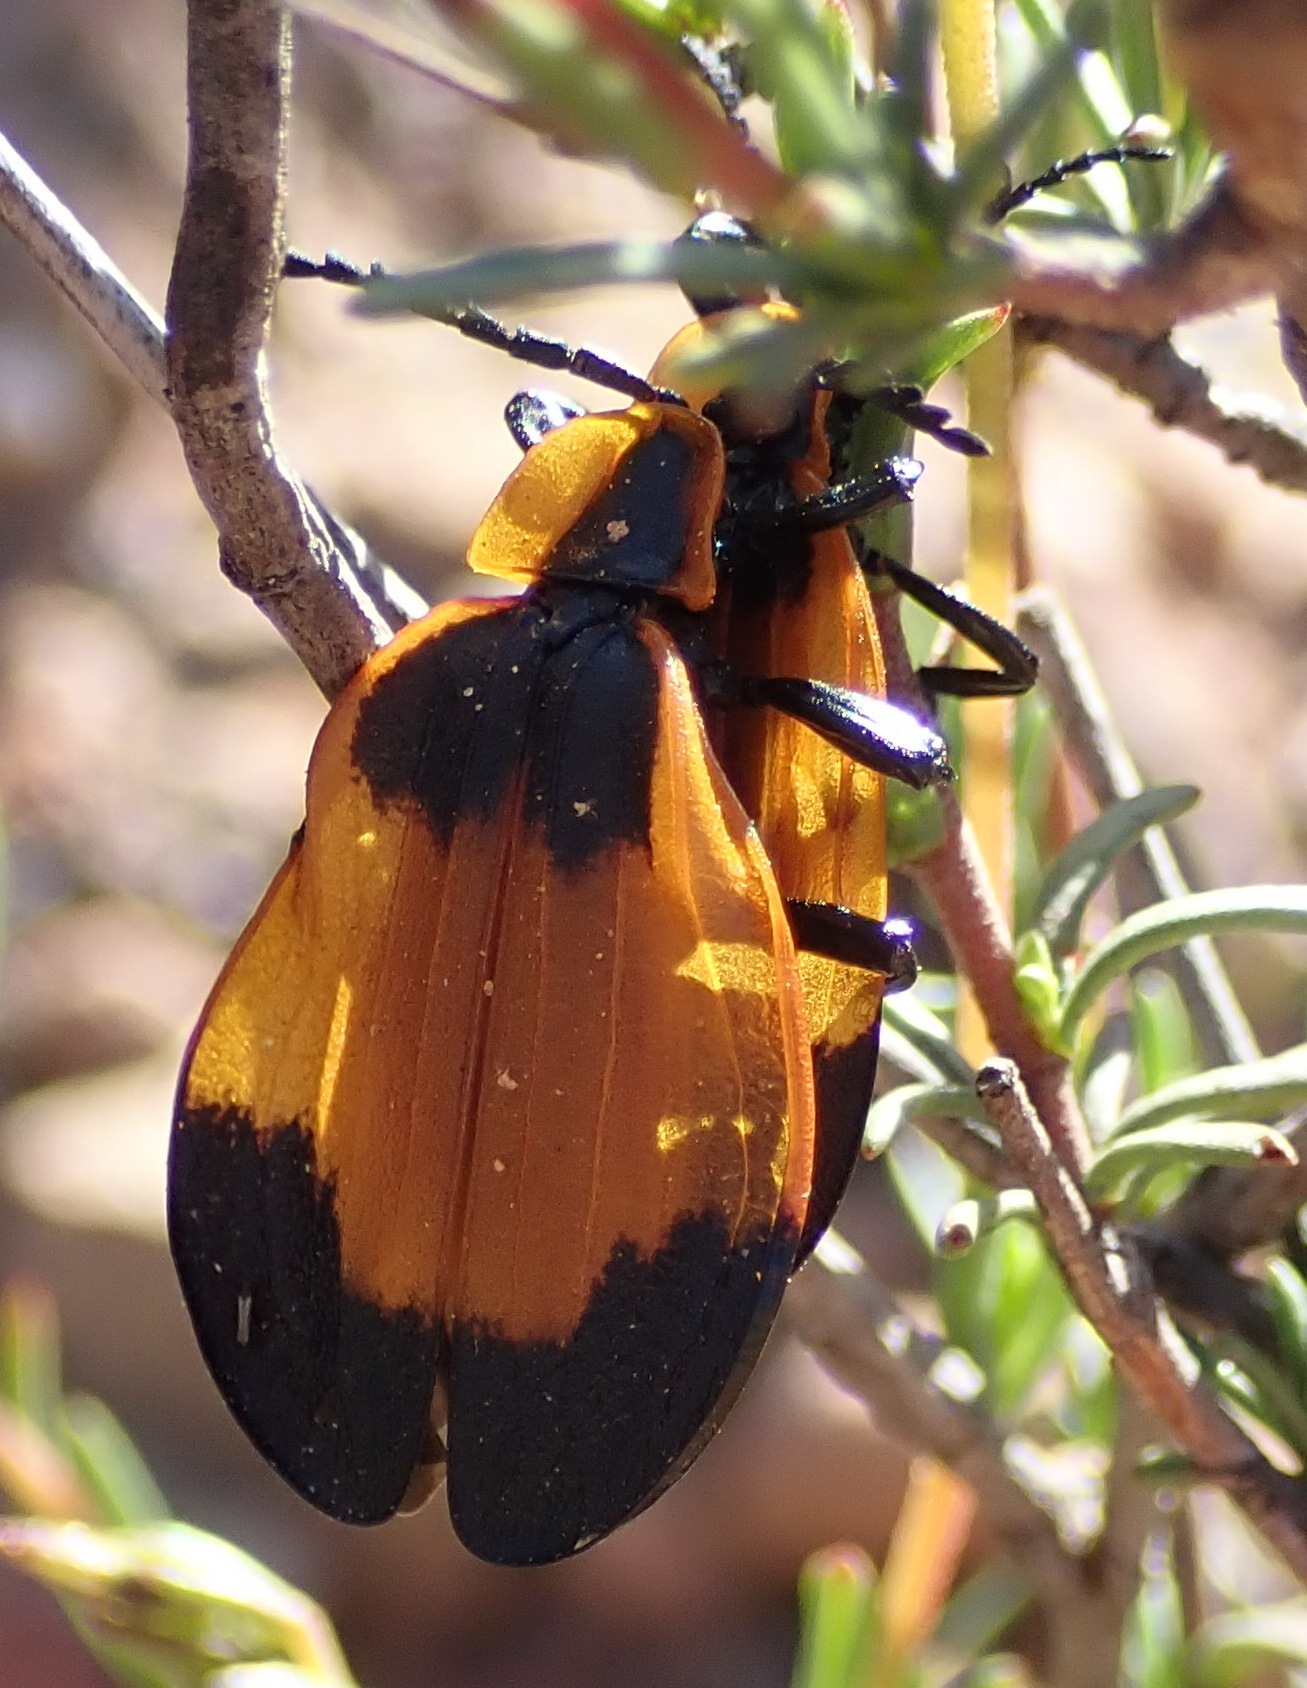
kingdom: Animalia
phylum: Arthropoda
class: Insecta
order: Coleoptera
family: Lycidae
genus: Lycus
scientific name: Lycus
